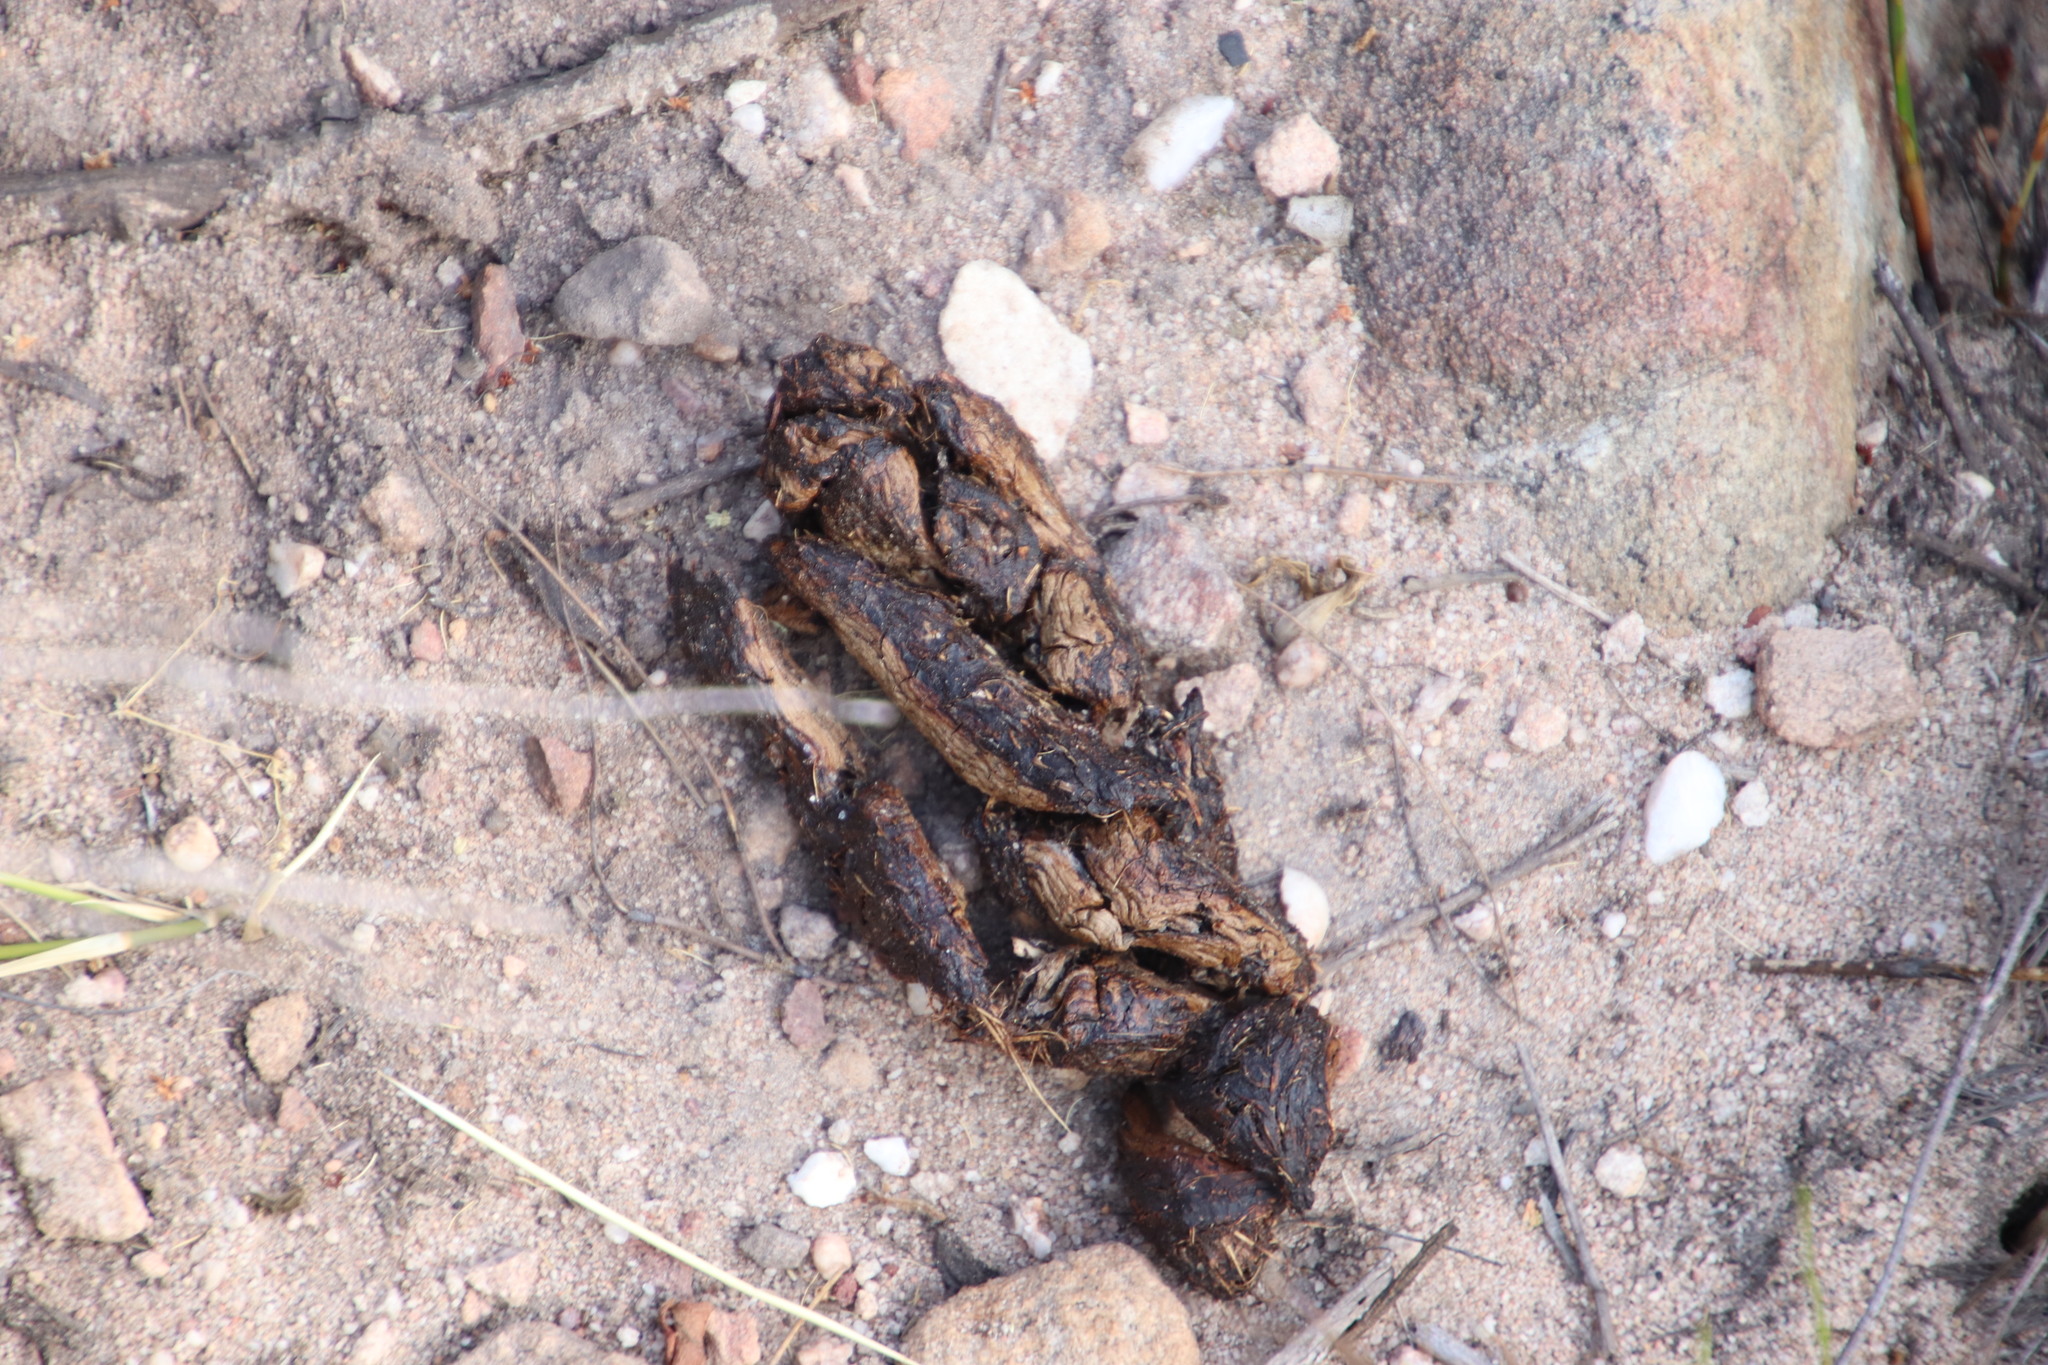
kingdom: Animalia
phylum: Chordata
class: Mammalia
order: Rodentia
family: Hystricidae
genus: Hystrix
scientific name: Hystrix africaeaustralis
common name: Cape porcupine
